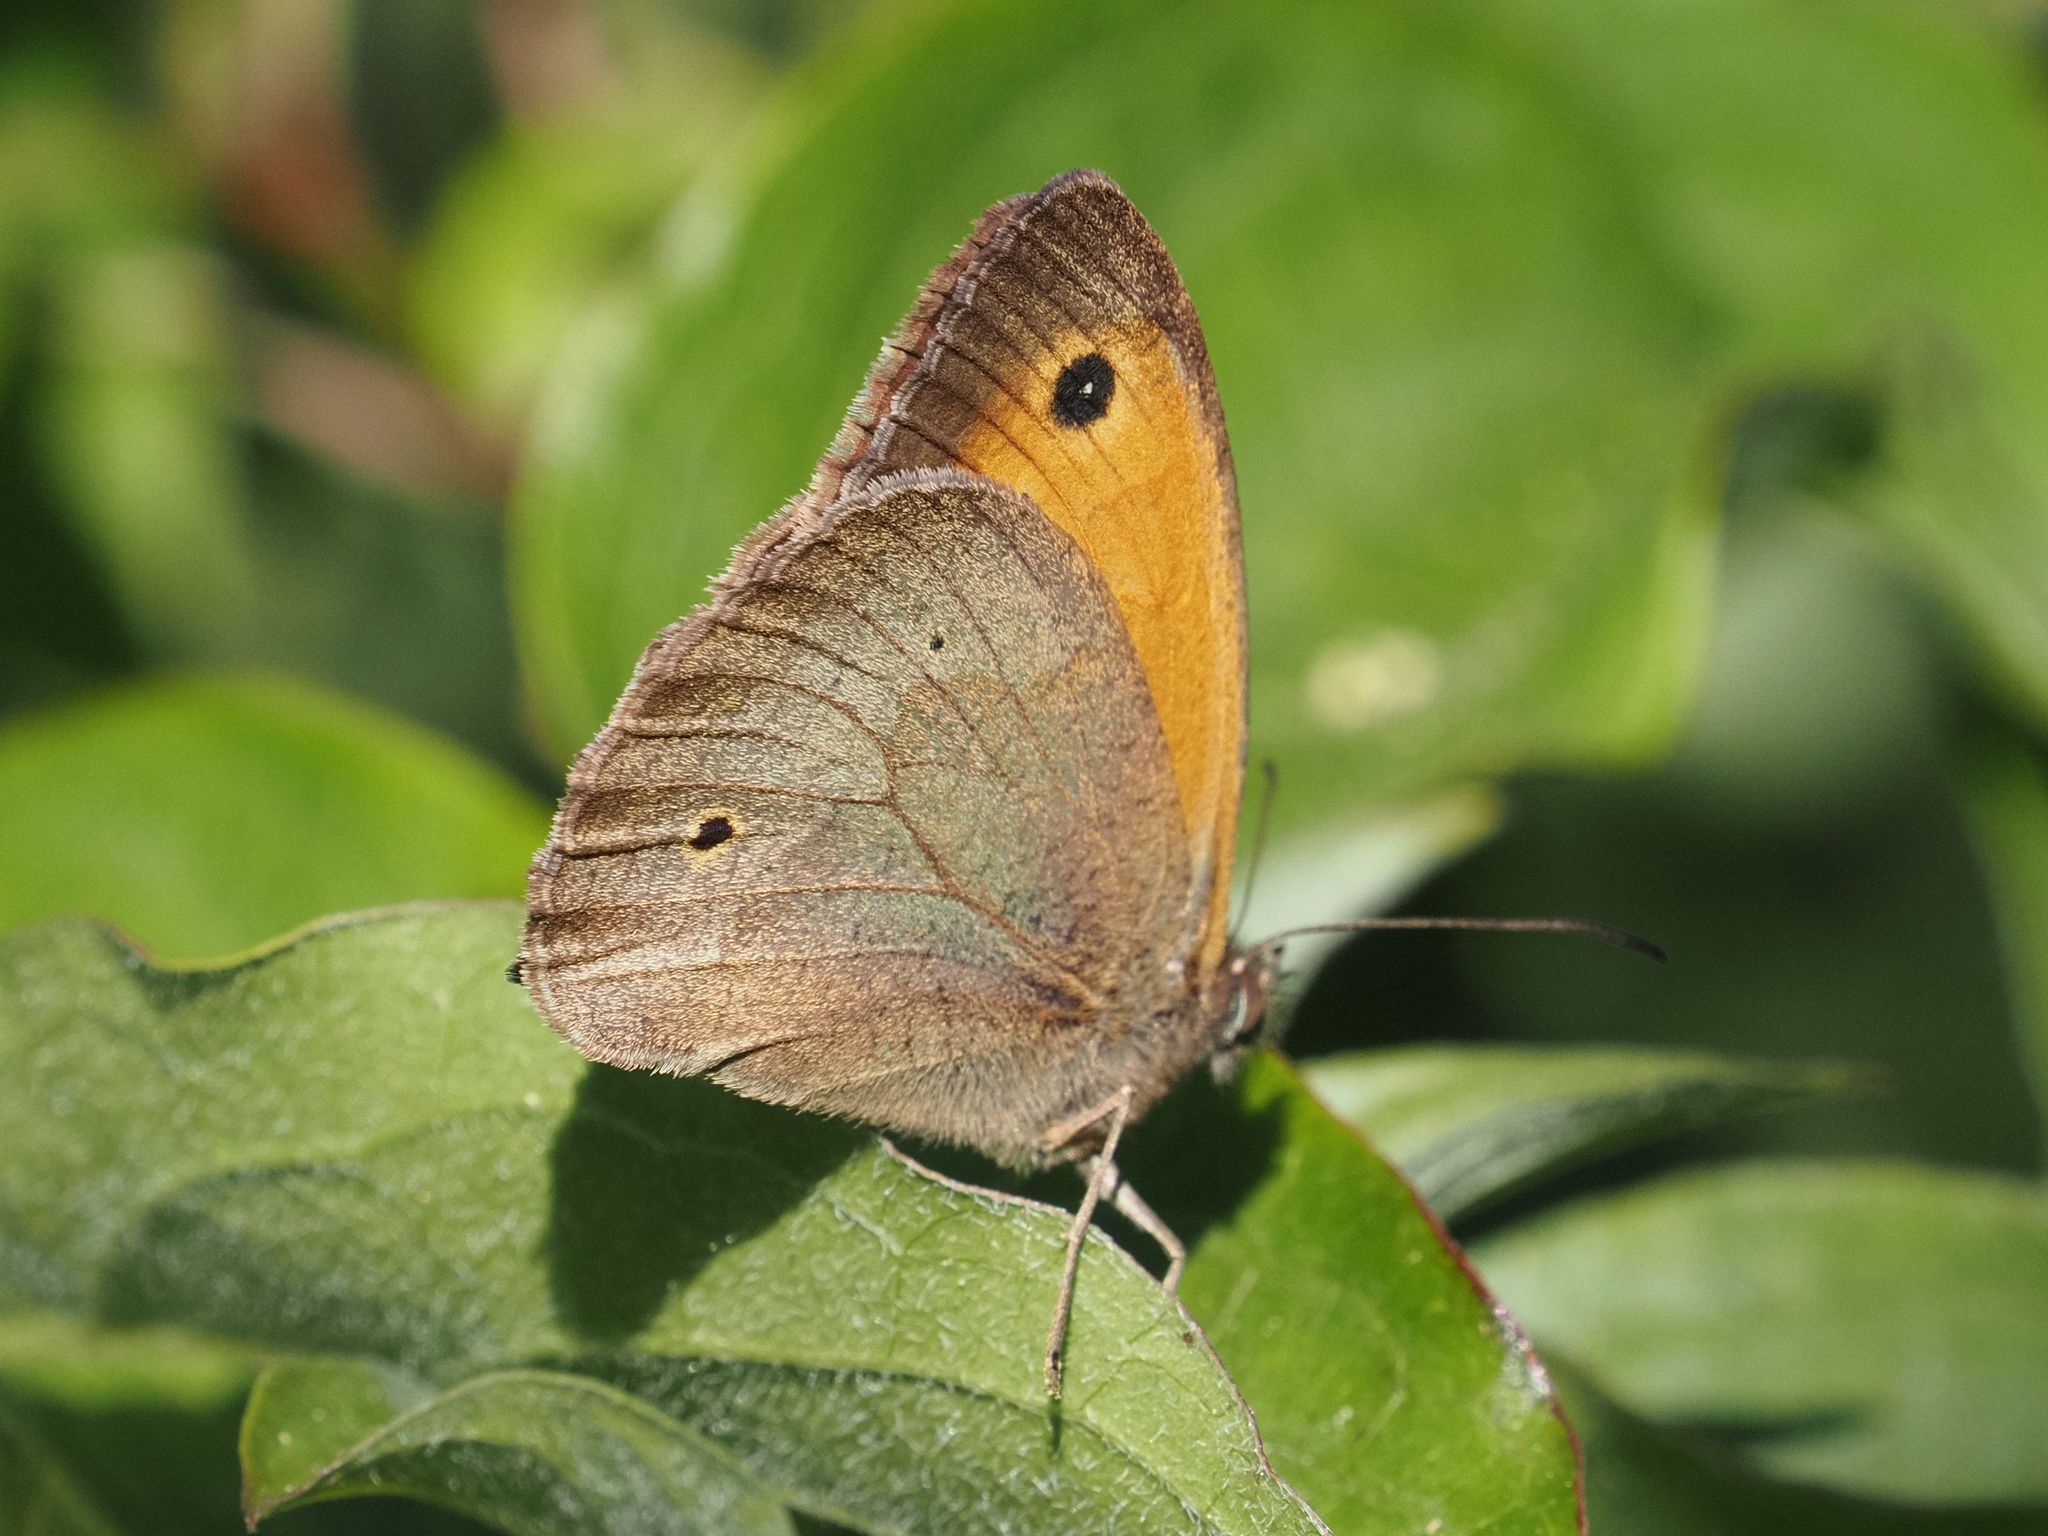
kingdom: Animalia
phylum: Arthropoda
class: Insecta
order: Lepidoptera
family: Nymphalidae
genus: Maniola
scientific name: Maniola jurtina
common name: Meadow brown
